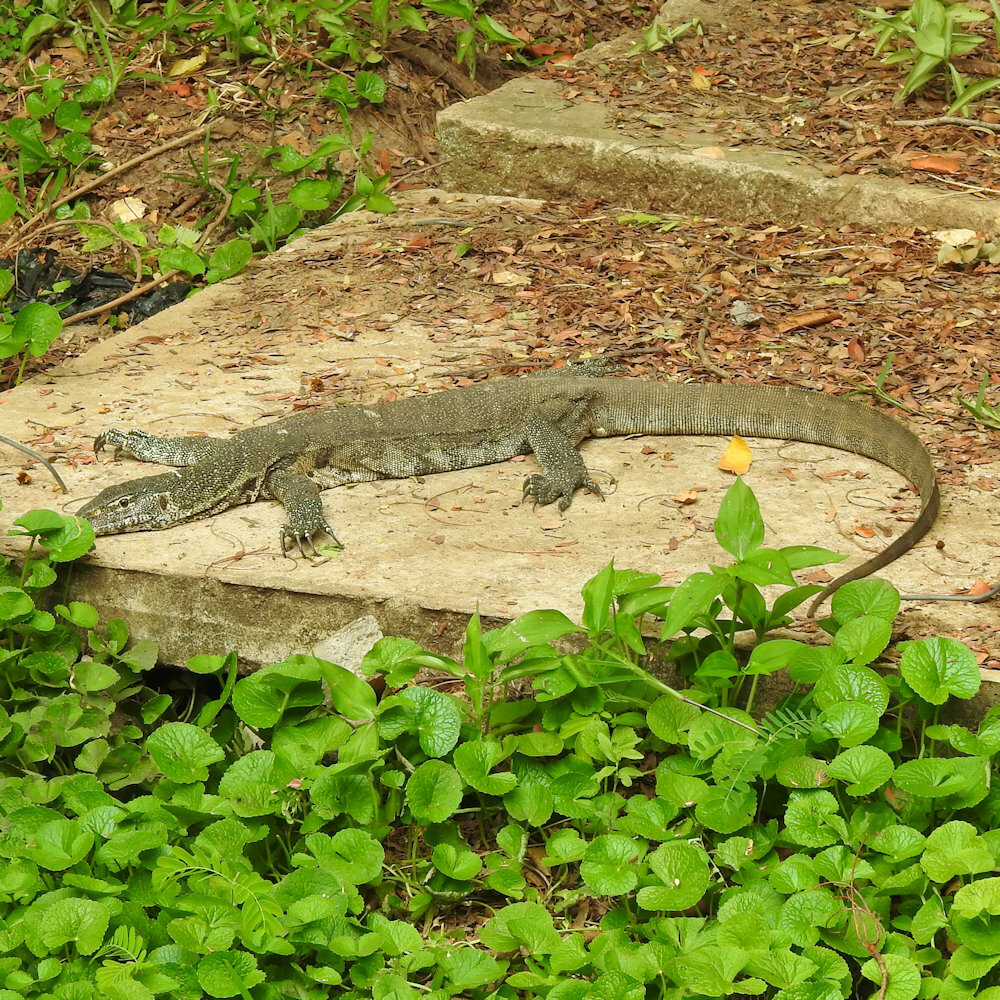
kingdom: Animalia
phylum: Chordata
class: Squamata
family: Varanidae
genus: Varanus
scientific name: Varanus niloticus
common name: Nile monitor
